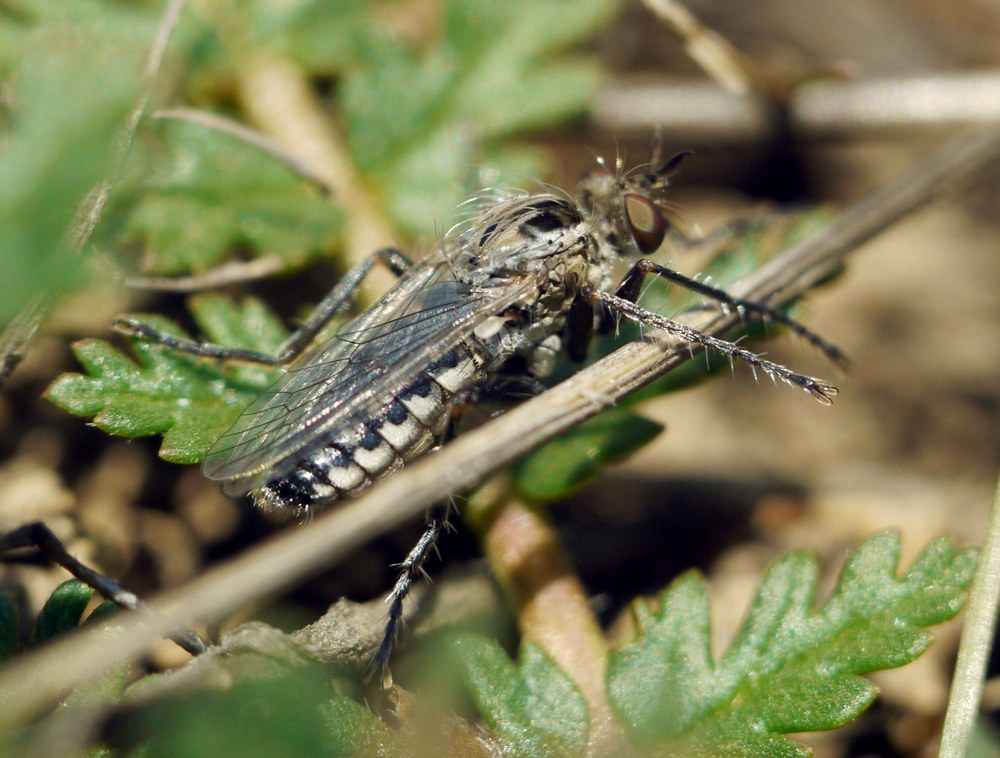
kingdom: Animalia
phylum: Arthropoda
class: Insecta
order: Diptera
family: Asilidae
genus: Paraphamartania
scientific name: Paraphamartania syriaca
